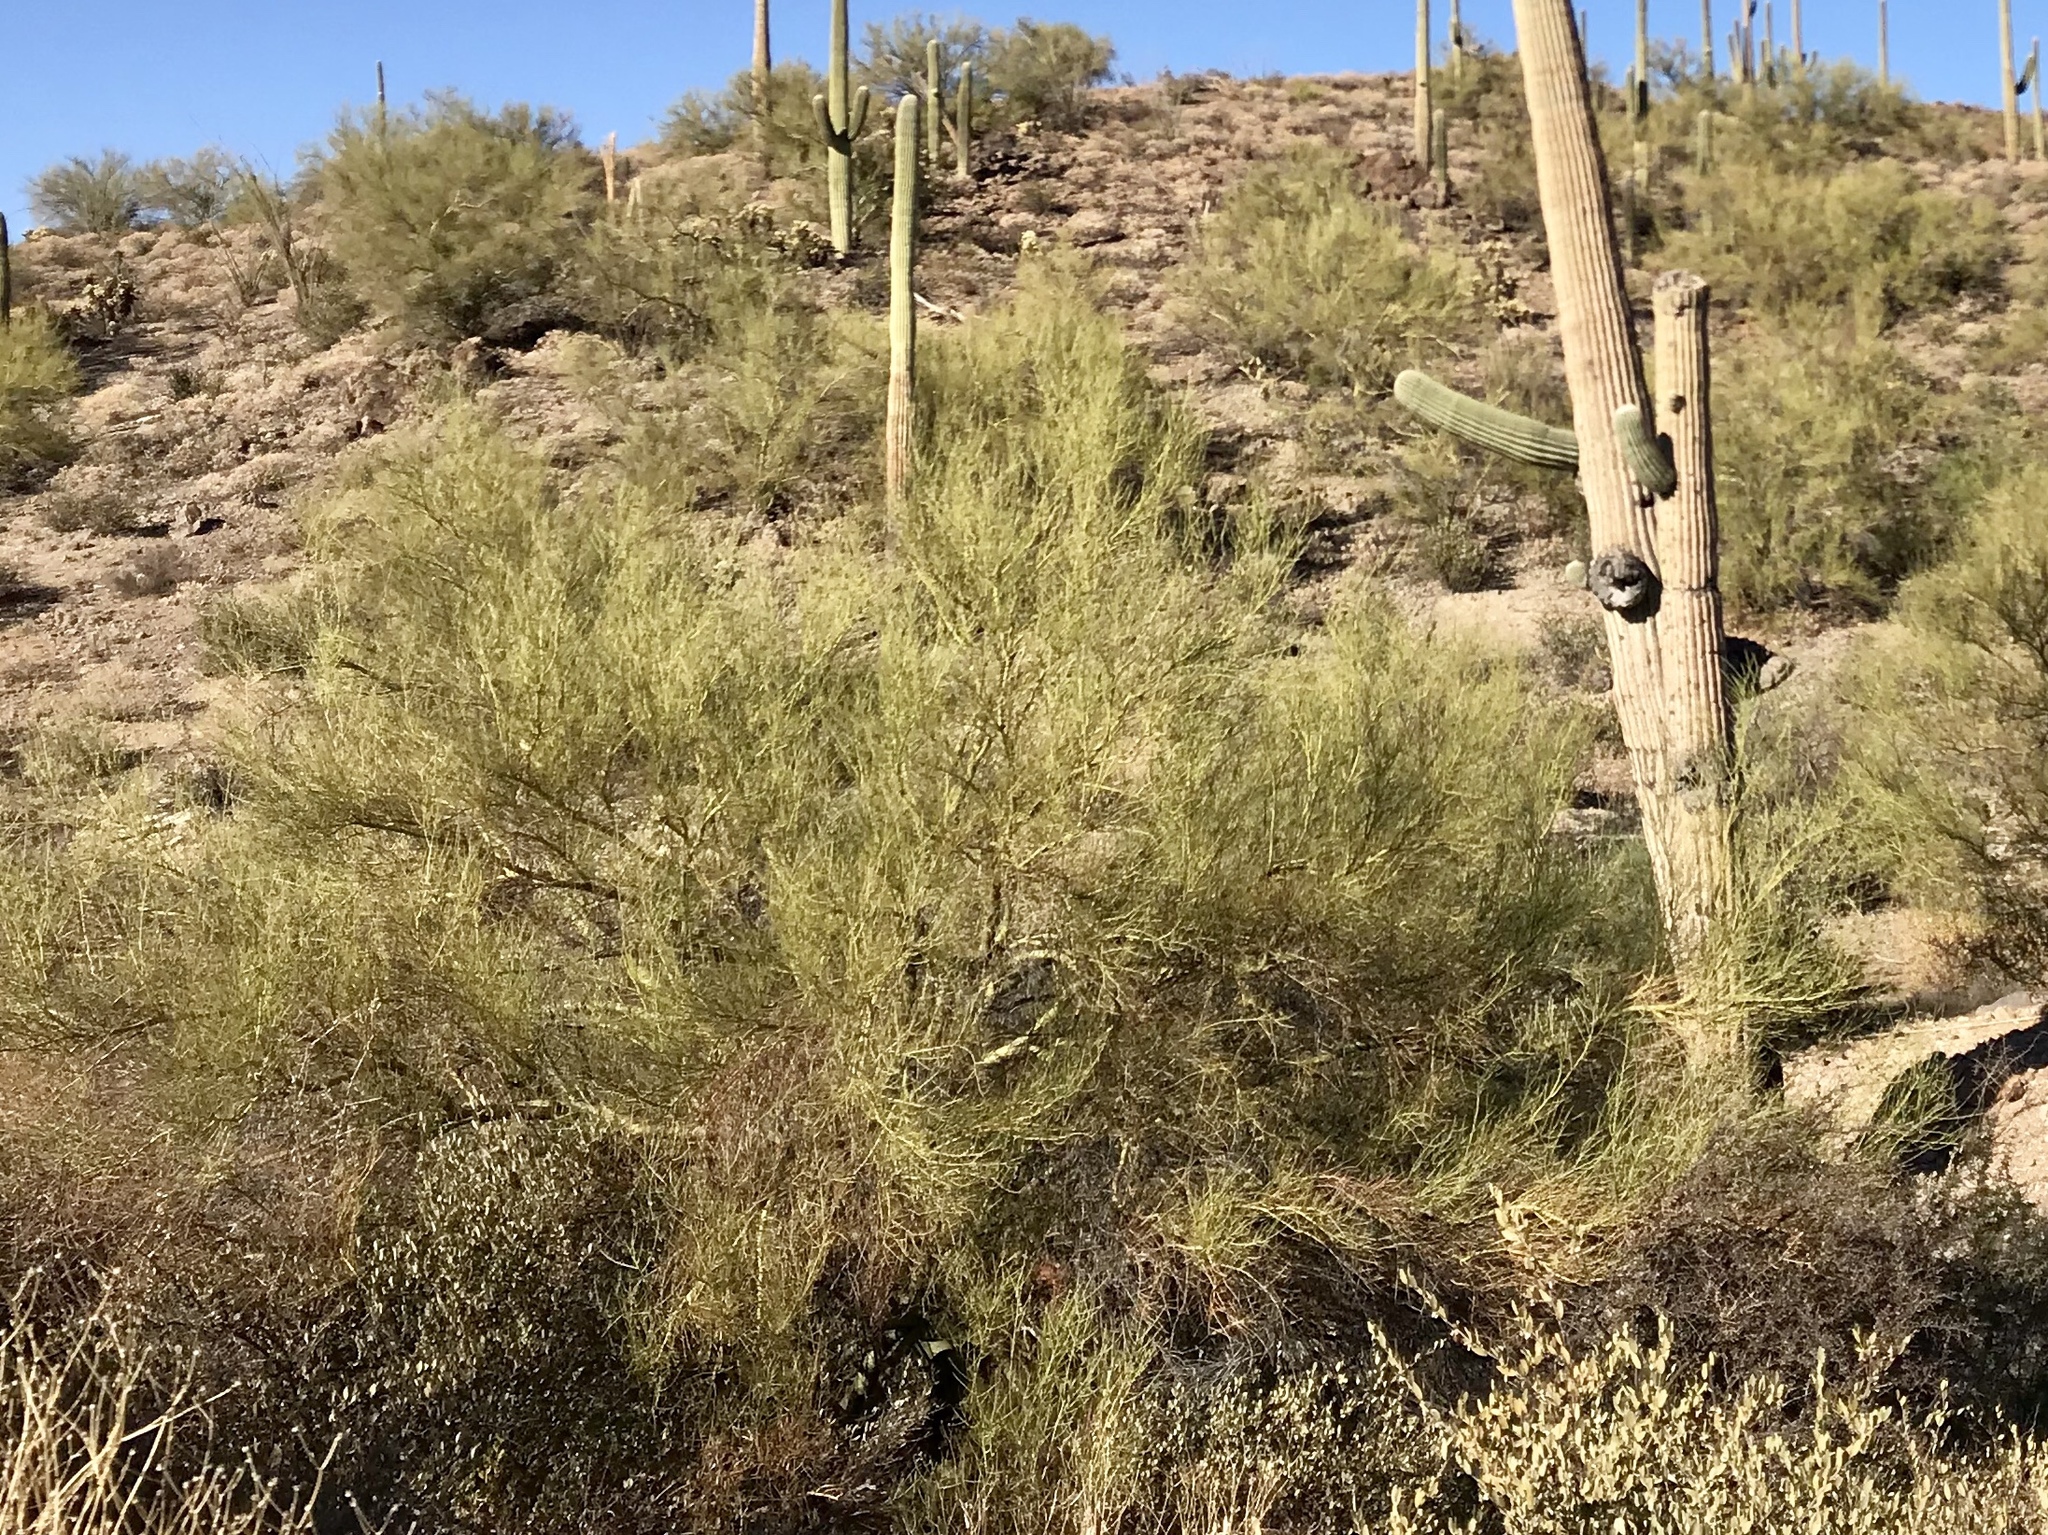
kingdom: Plantae
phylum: Tracheophyta
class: Magnoliopsida
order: Fabales
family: Fabaceae
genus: Parkinsonia
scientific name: Parkinsonia microphylla
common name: Yellow paloverde
